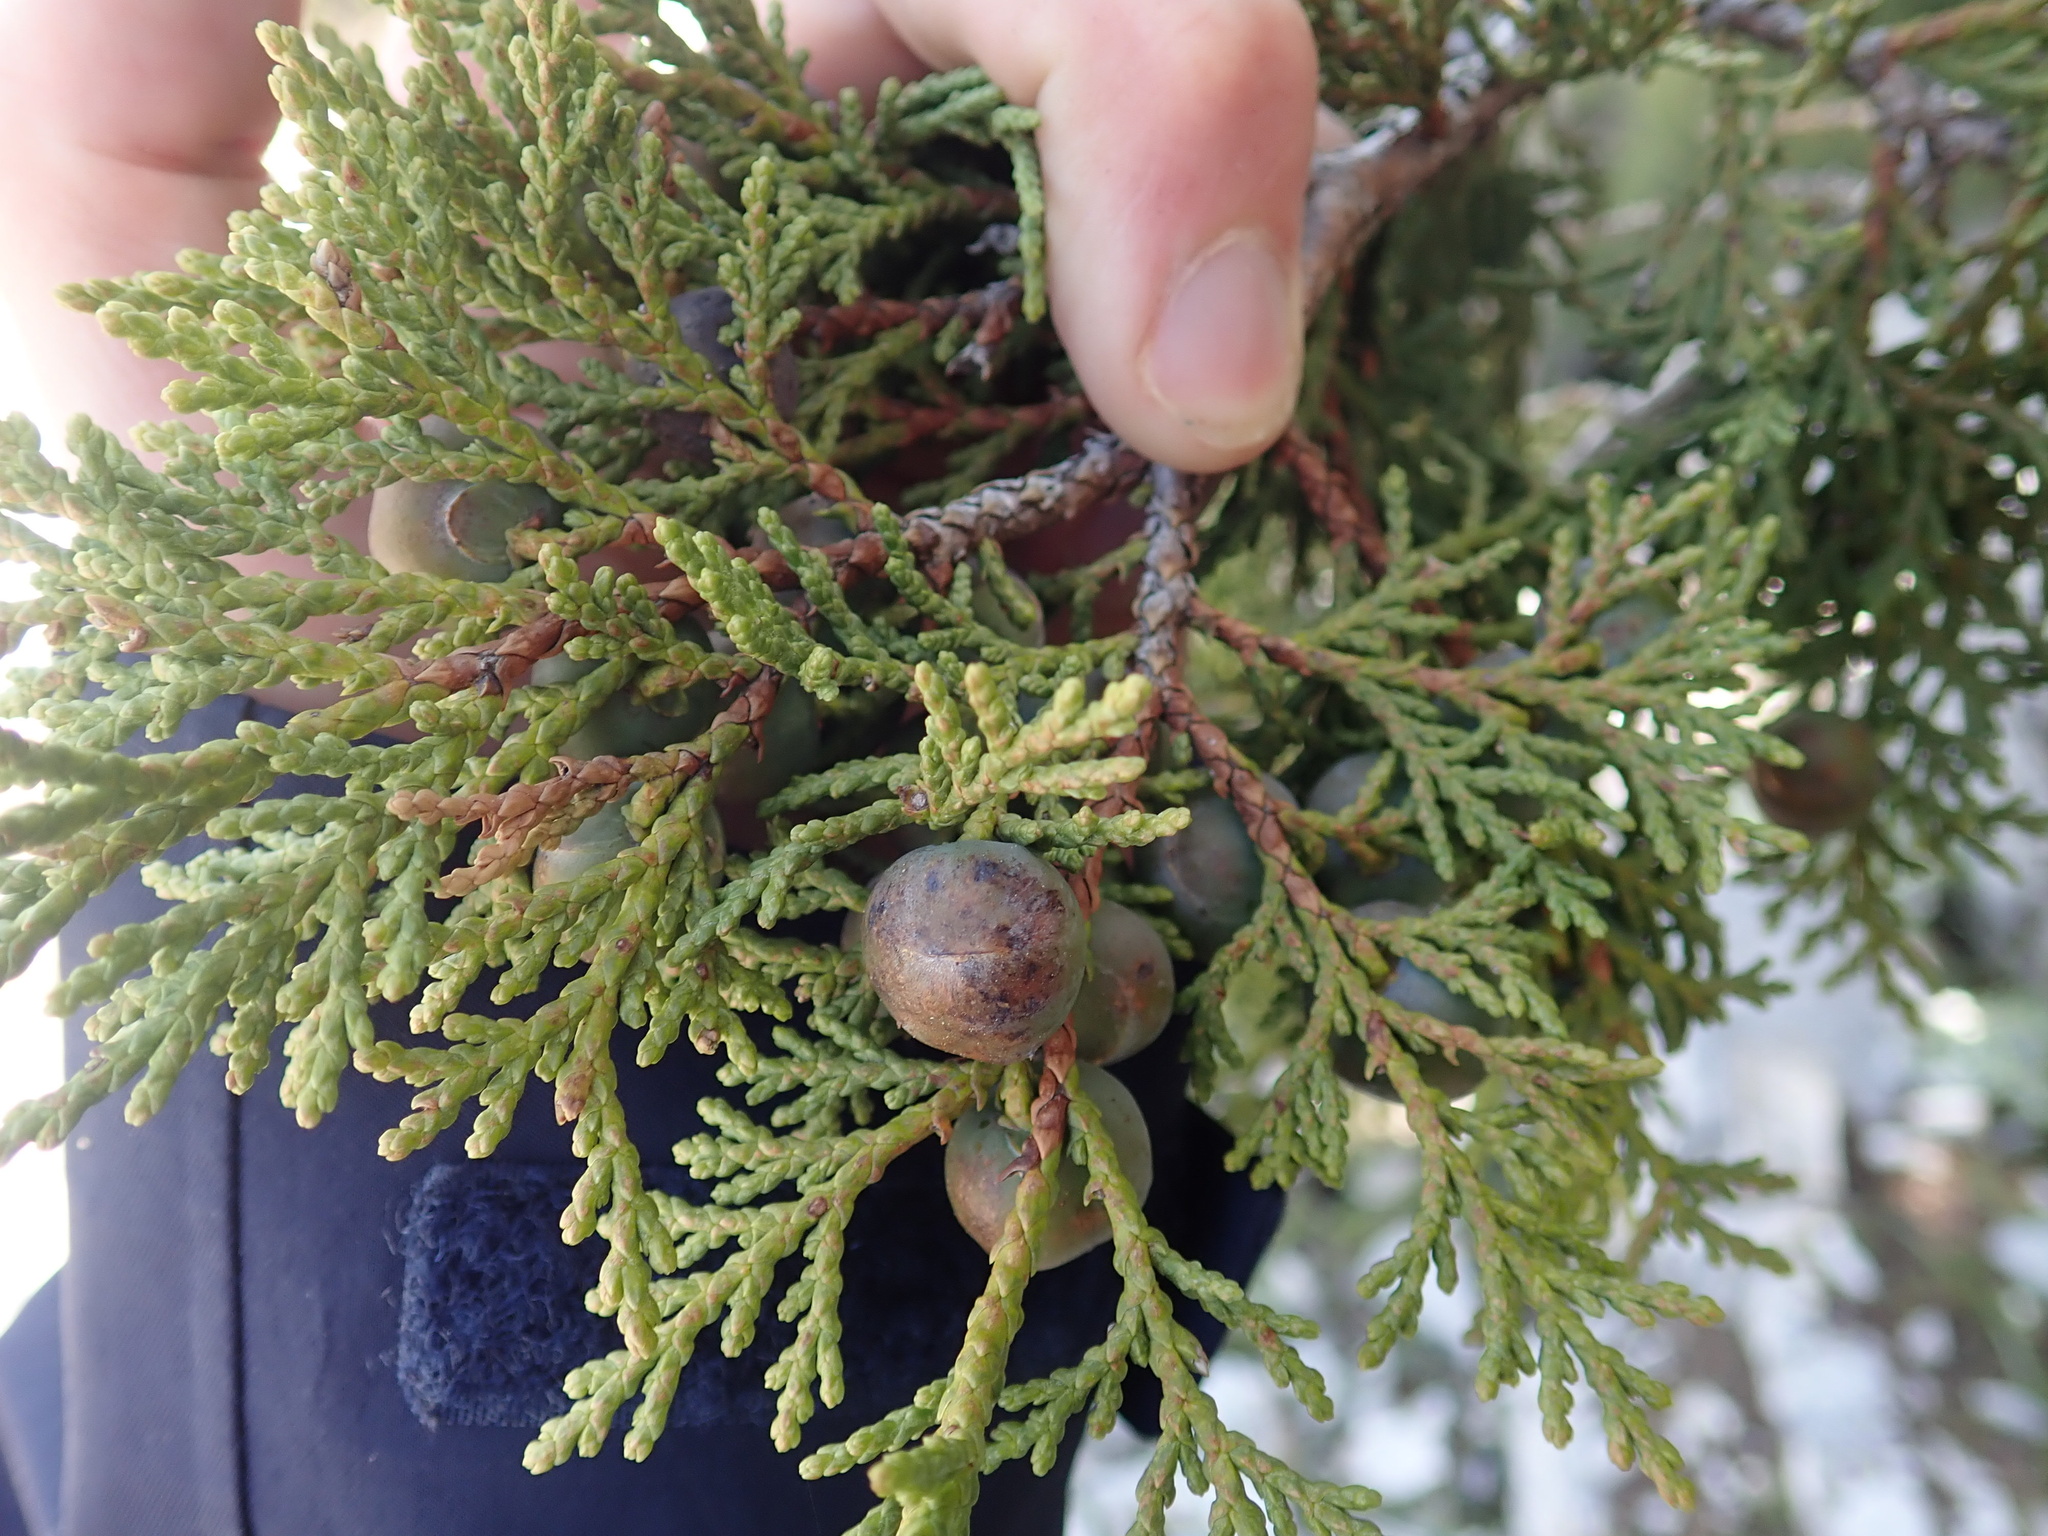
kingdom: Plantae
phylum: Tracheophyta
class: Pinopsida
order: Pinales
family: Cupressaceae
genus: Juniperus
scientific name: Juniperus foetidissima
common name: Stinking juniper
